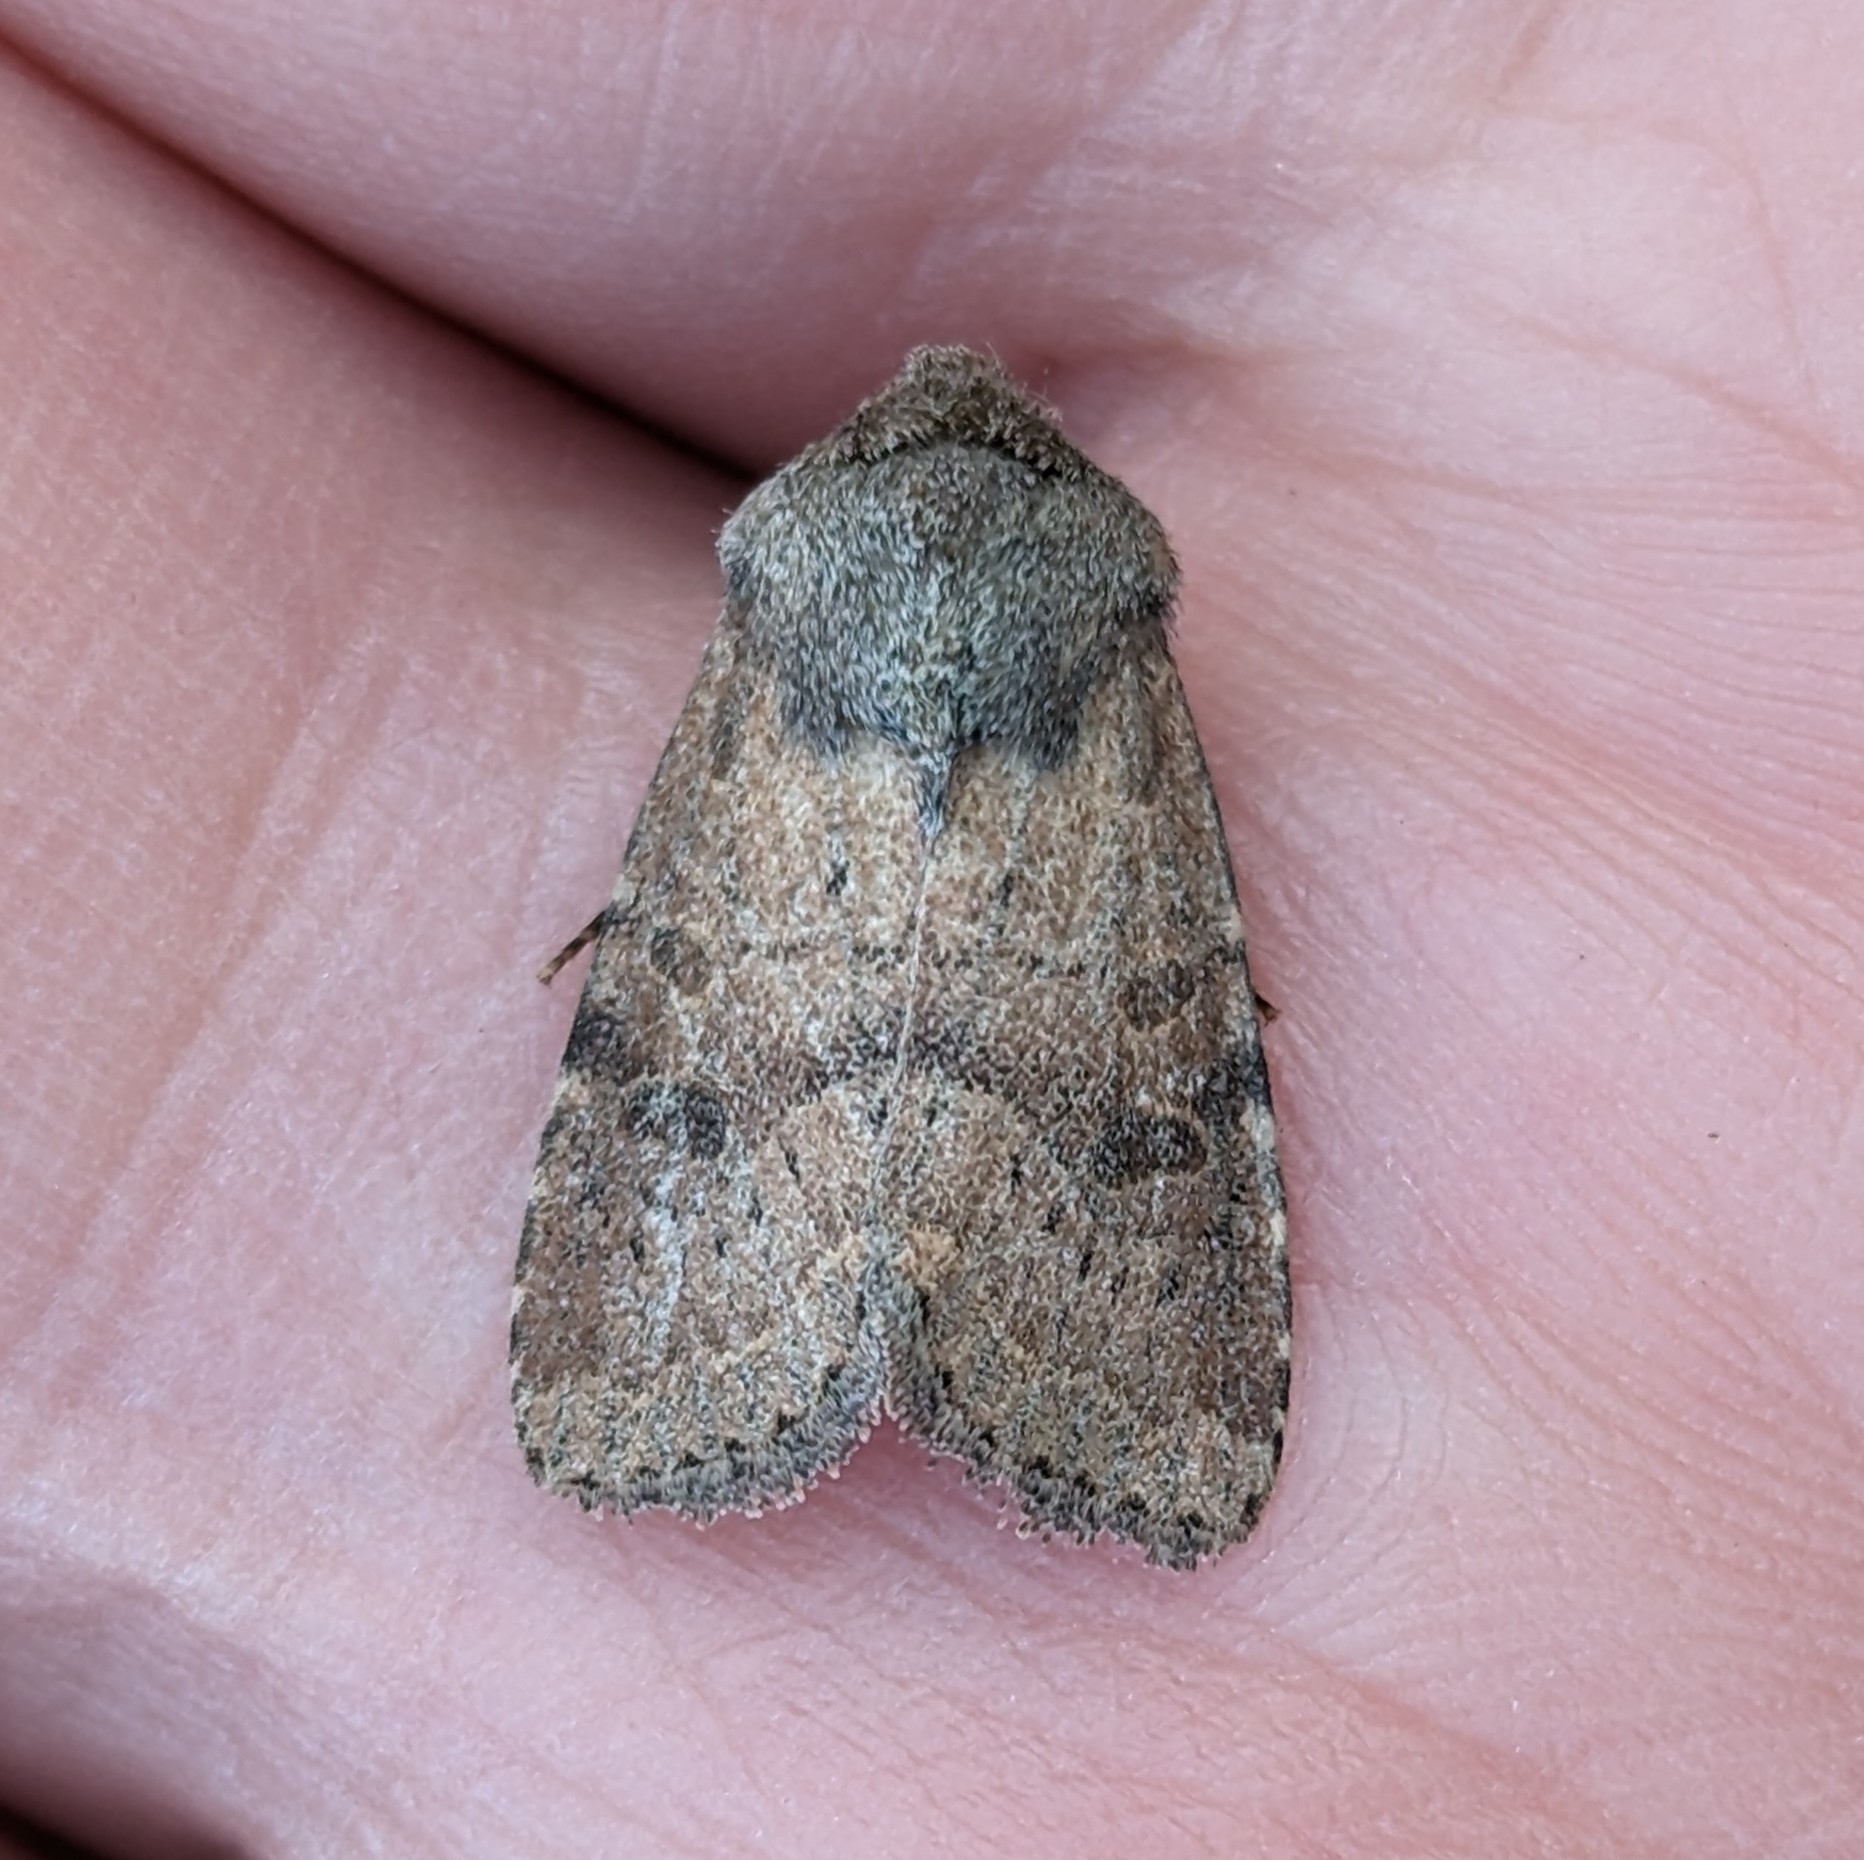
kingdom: Animalia
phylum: Arthropoda
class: Insecta
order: Lepidoptera
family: Noctuidae
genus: Trichopolia
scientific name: Trichopolia
